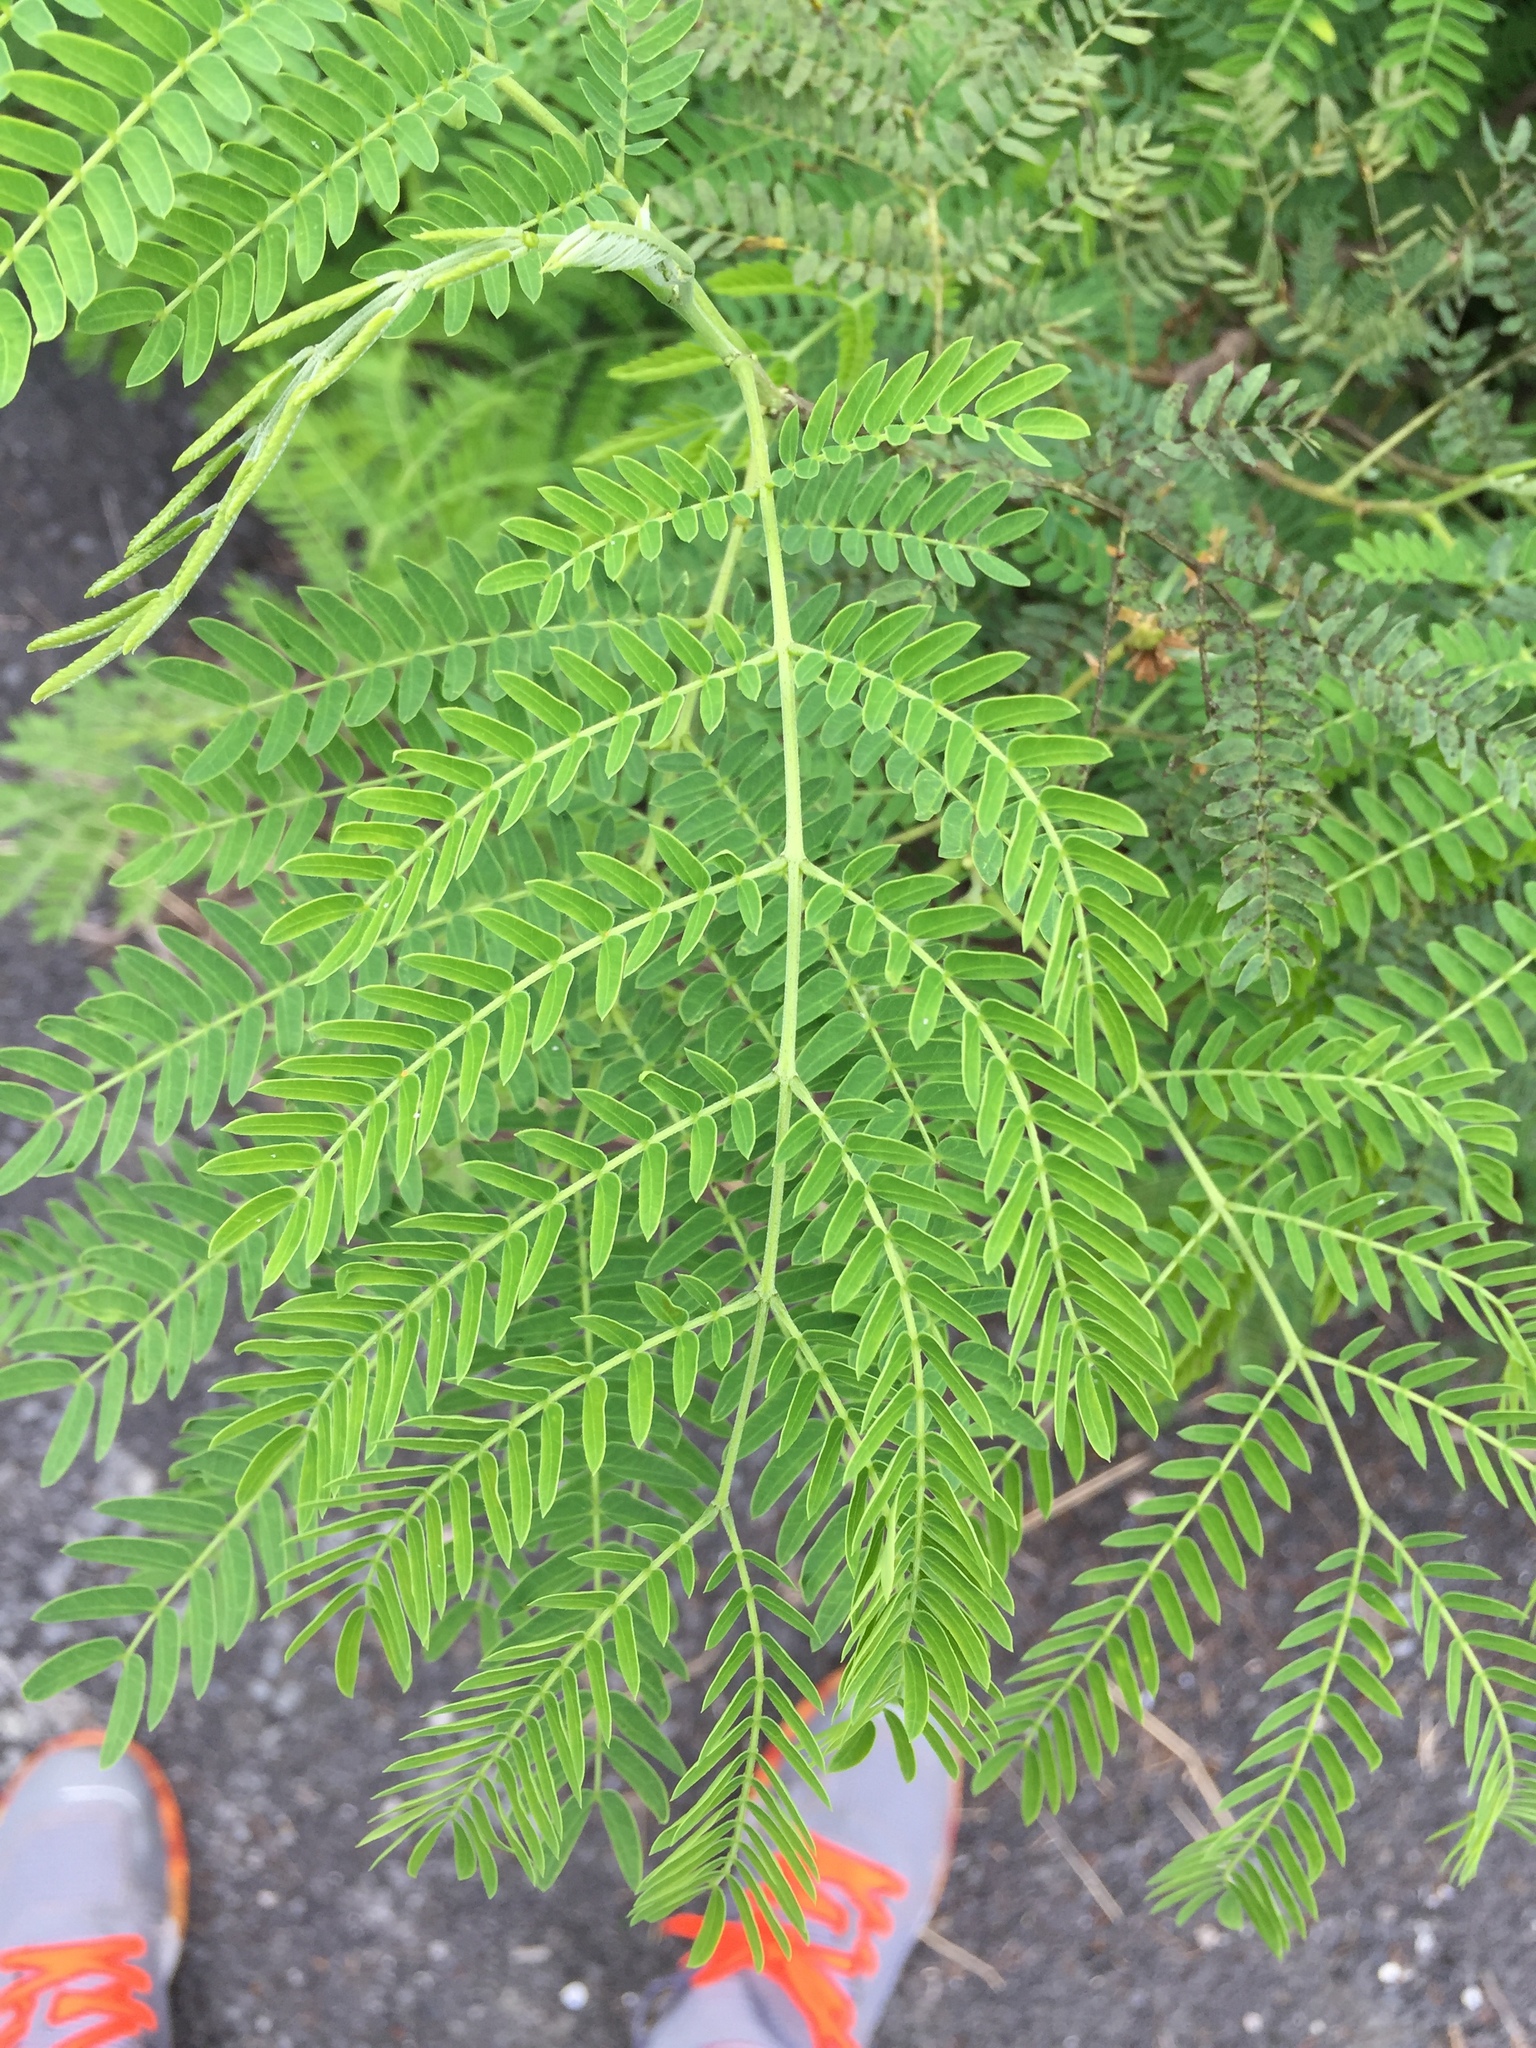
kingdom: Plantae
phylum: Tracheophyta
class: Magnoliopsida
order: Fabales
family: Fabaceae
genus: Leucaena
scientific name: Leucaena leucocephala
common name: White leadtree
